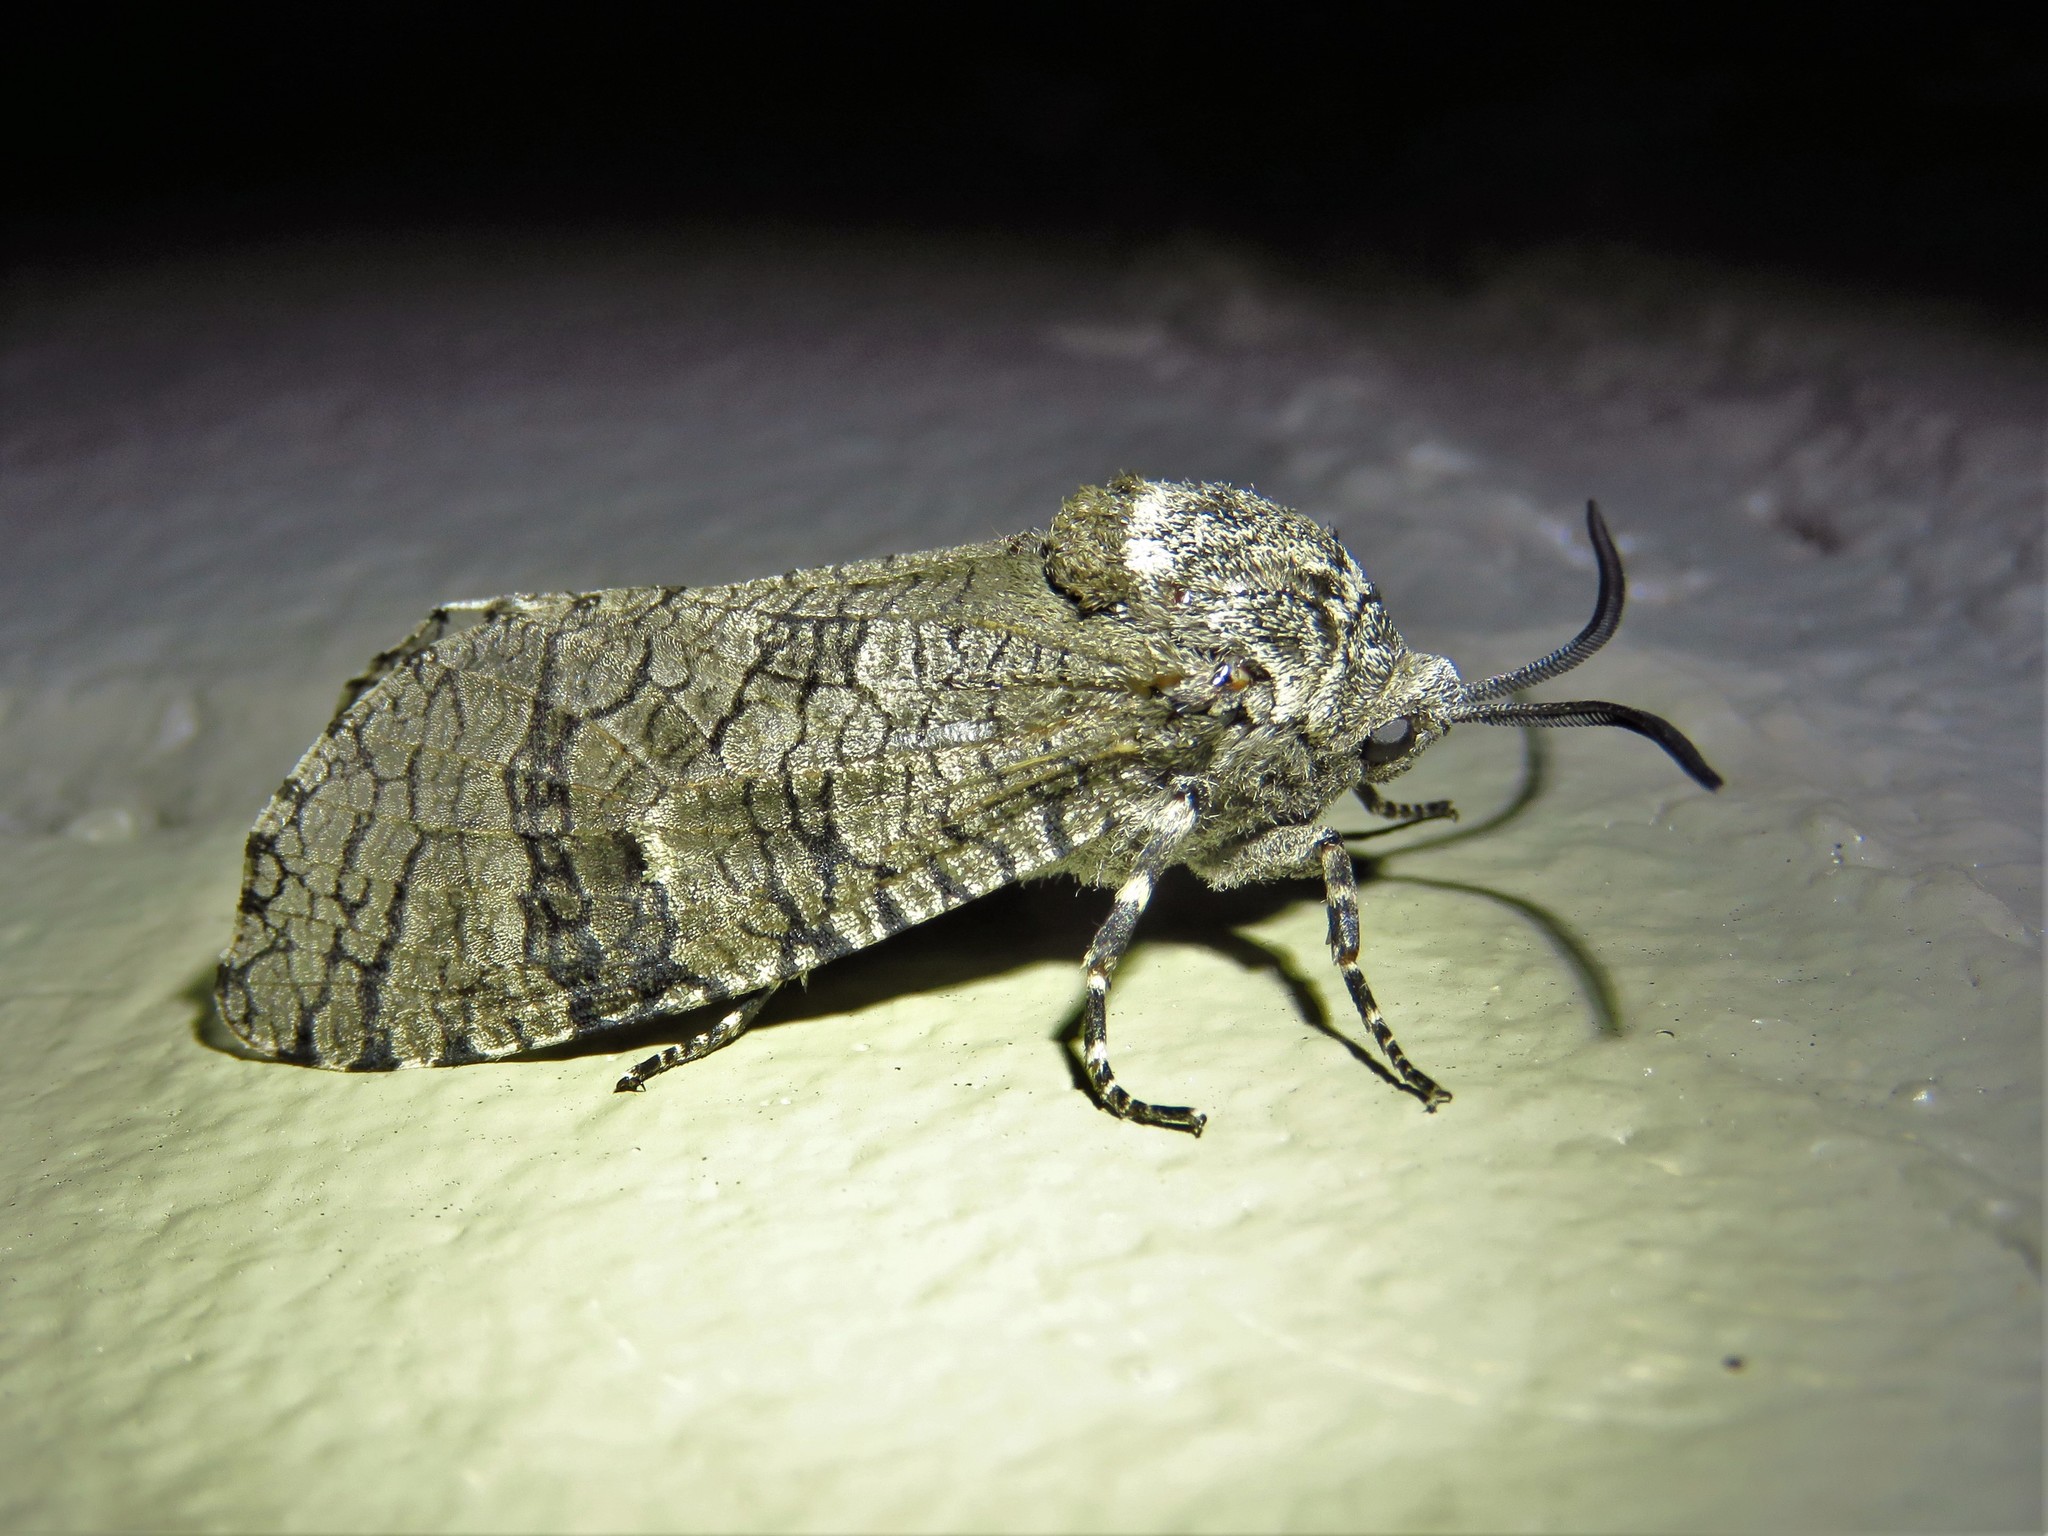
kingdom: Animalia
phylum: Arthropoda
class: Insecta
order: Lepidoptera
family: Cossidae
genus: Prionoxystus
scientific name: Prionoxystus macmurtrei
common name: Little carpenterworm
